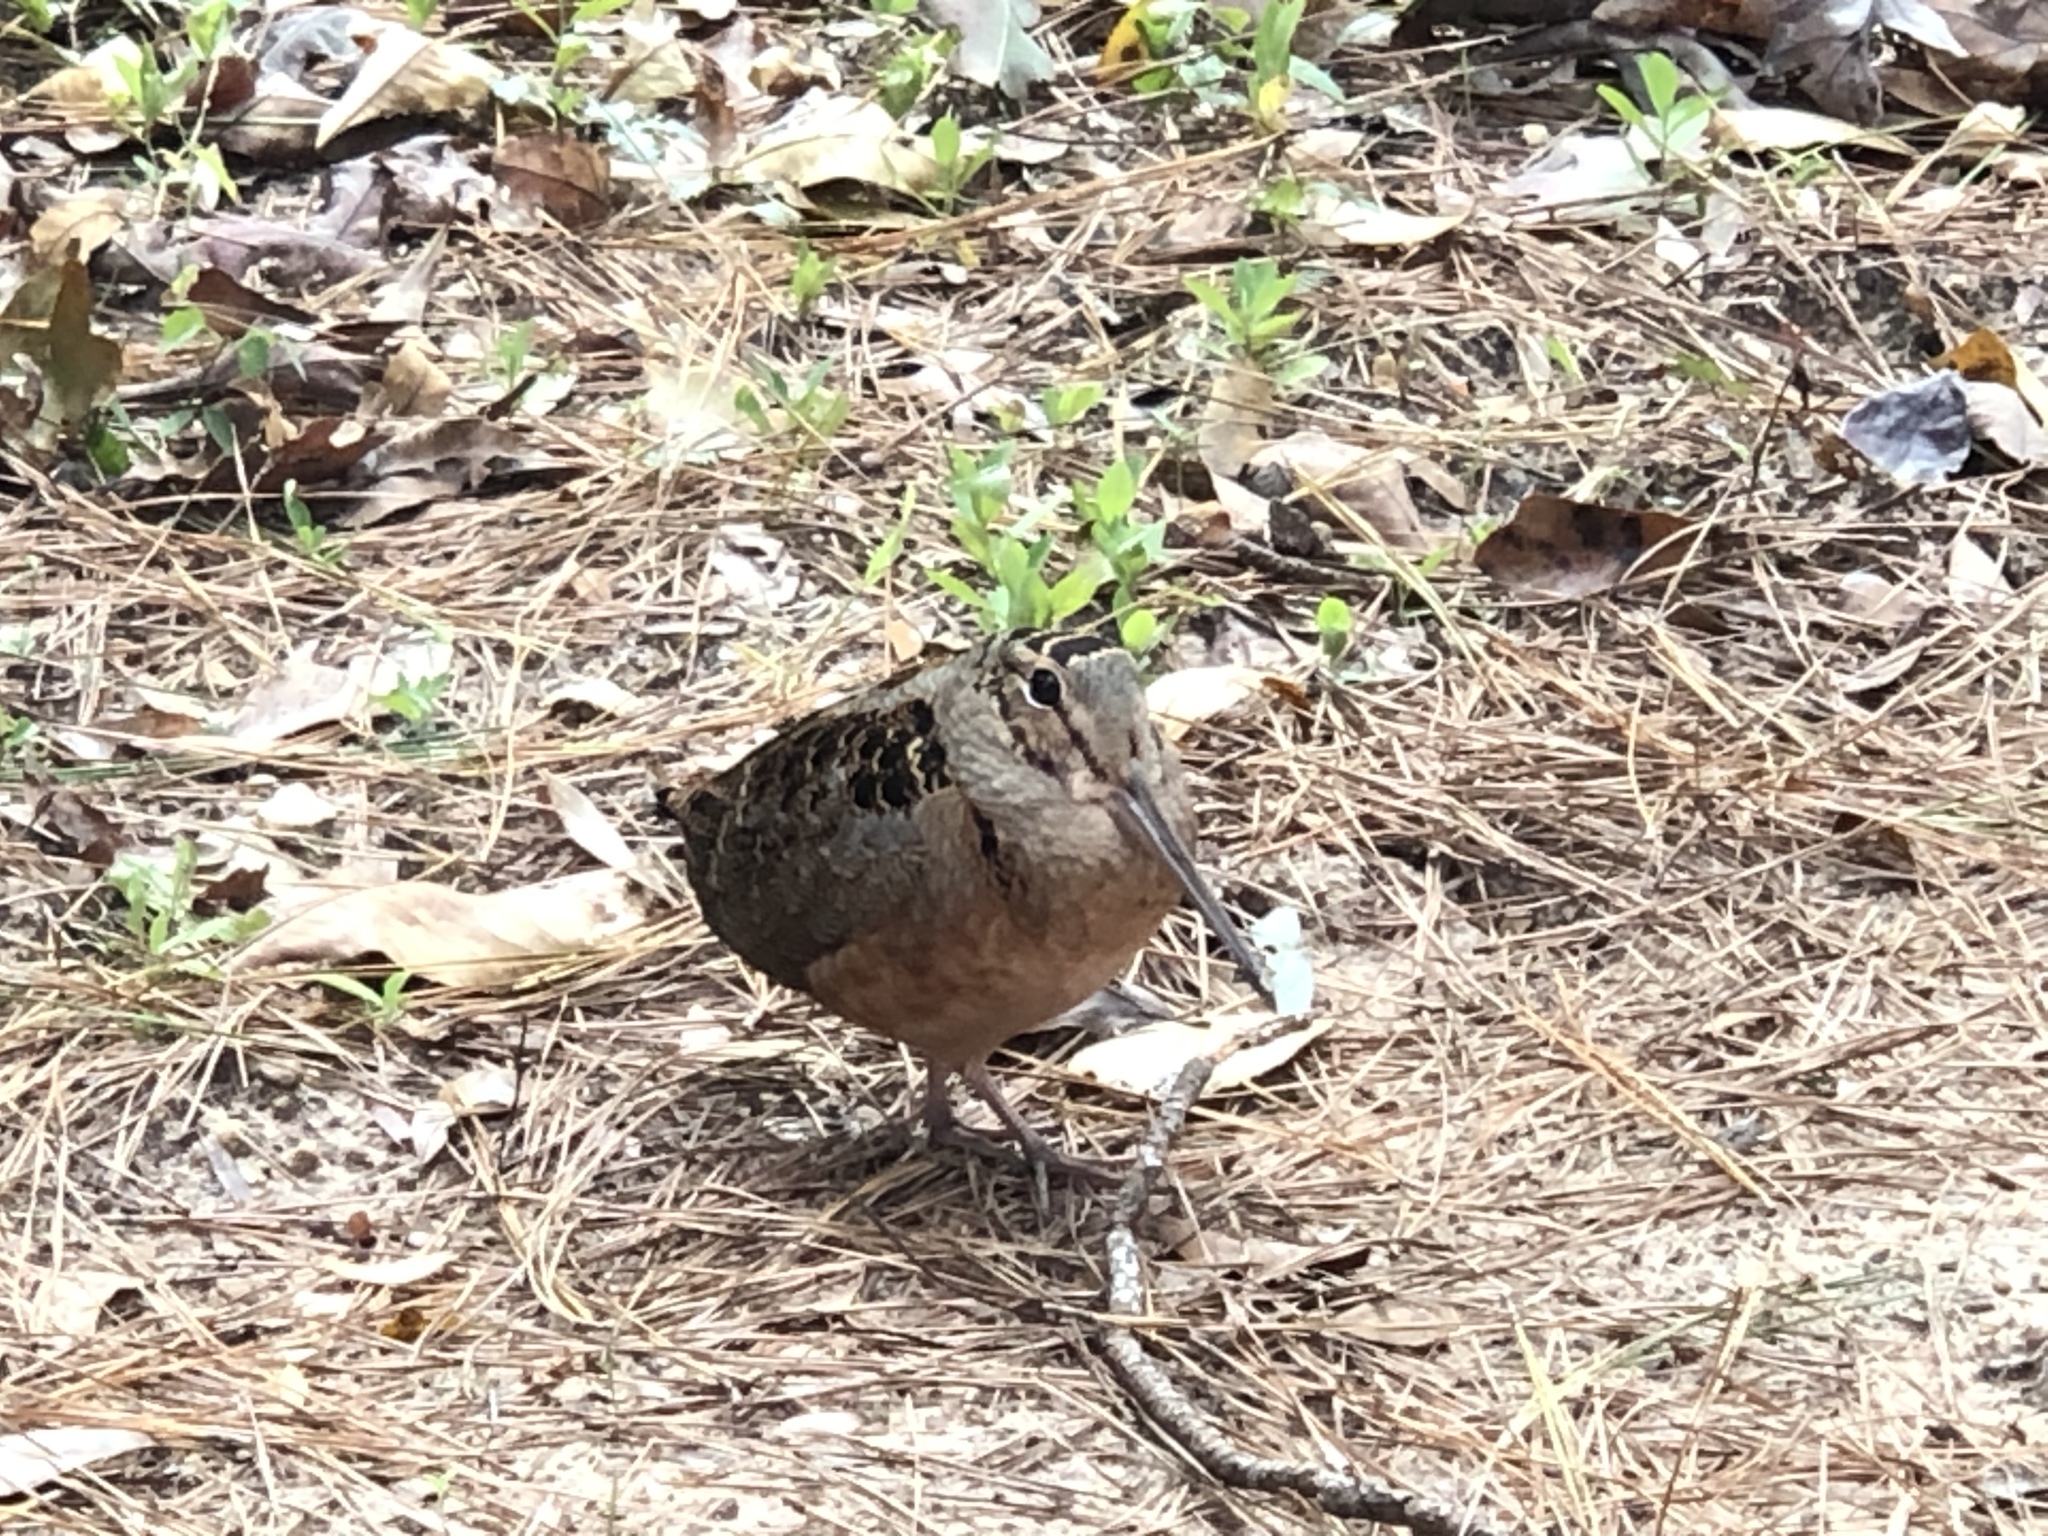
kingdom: Animalia
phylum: Chordata
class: Aves
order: Charadriiformes
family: Scolopacidae
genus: Scolopax
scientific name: Scolopax minor
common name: American woodcock
